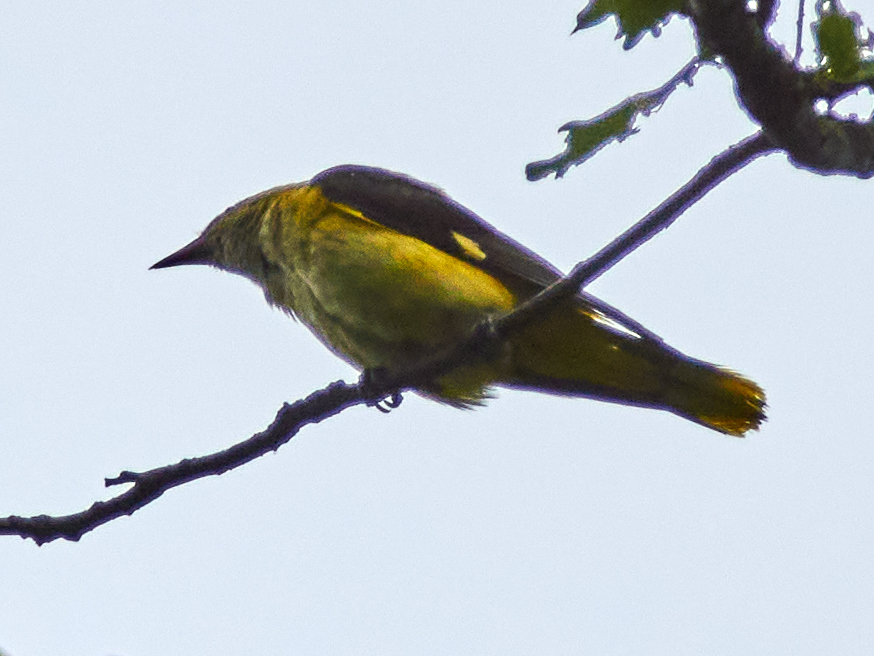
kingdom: Animalia
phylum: Chordata
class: Aves
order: Passeriformes
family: Oriolidae
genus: Oriolus
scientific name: Oriolus oriolus
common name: Eurasian golden oriole
